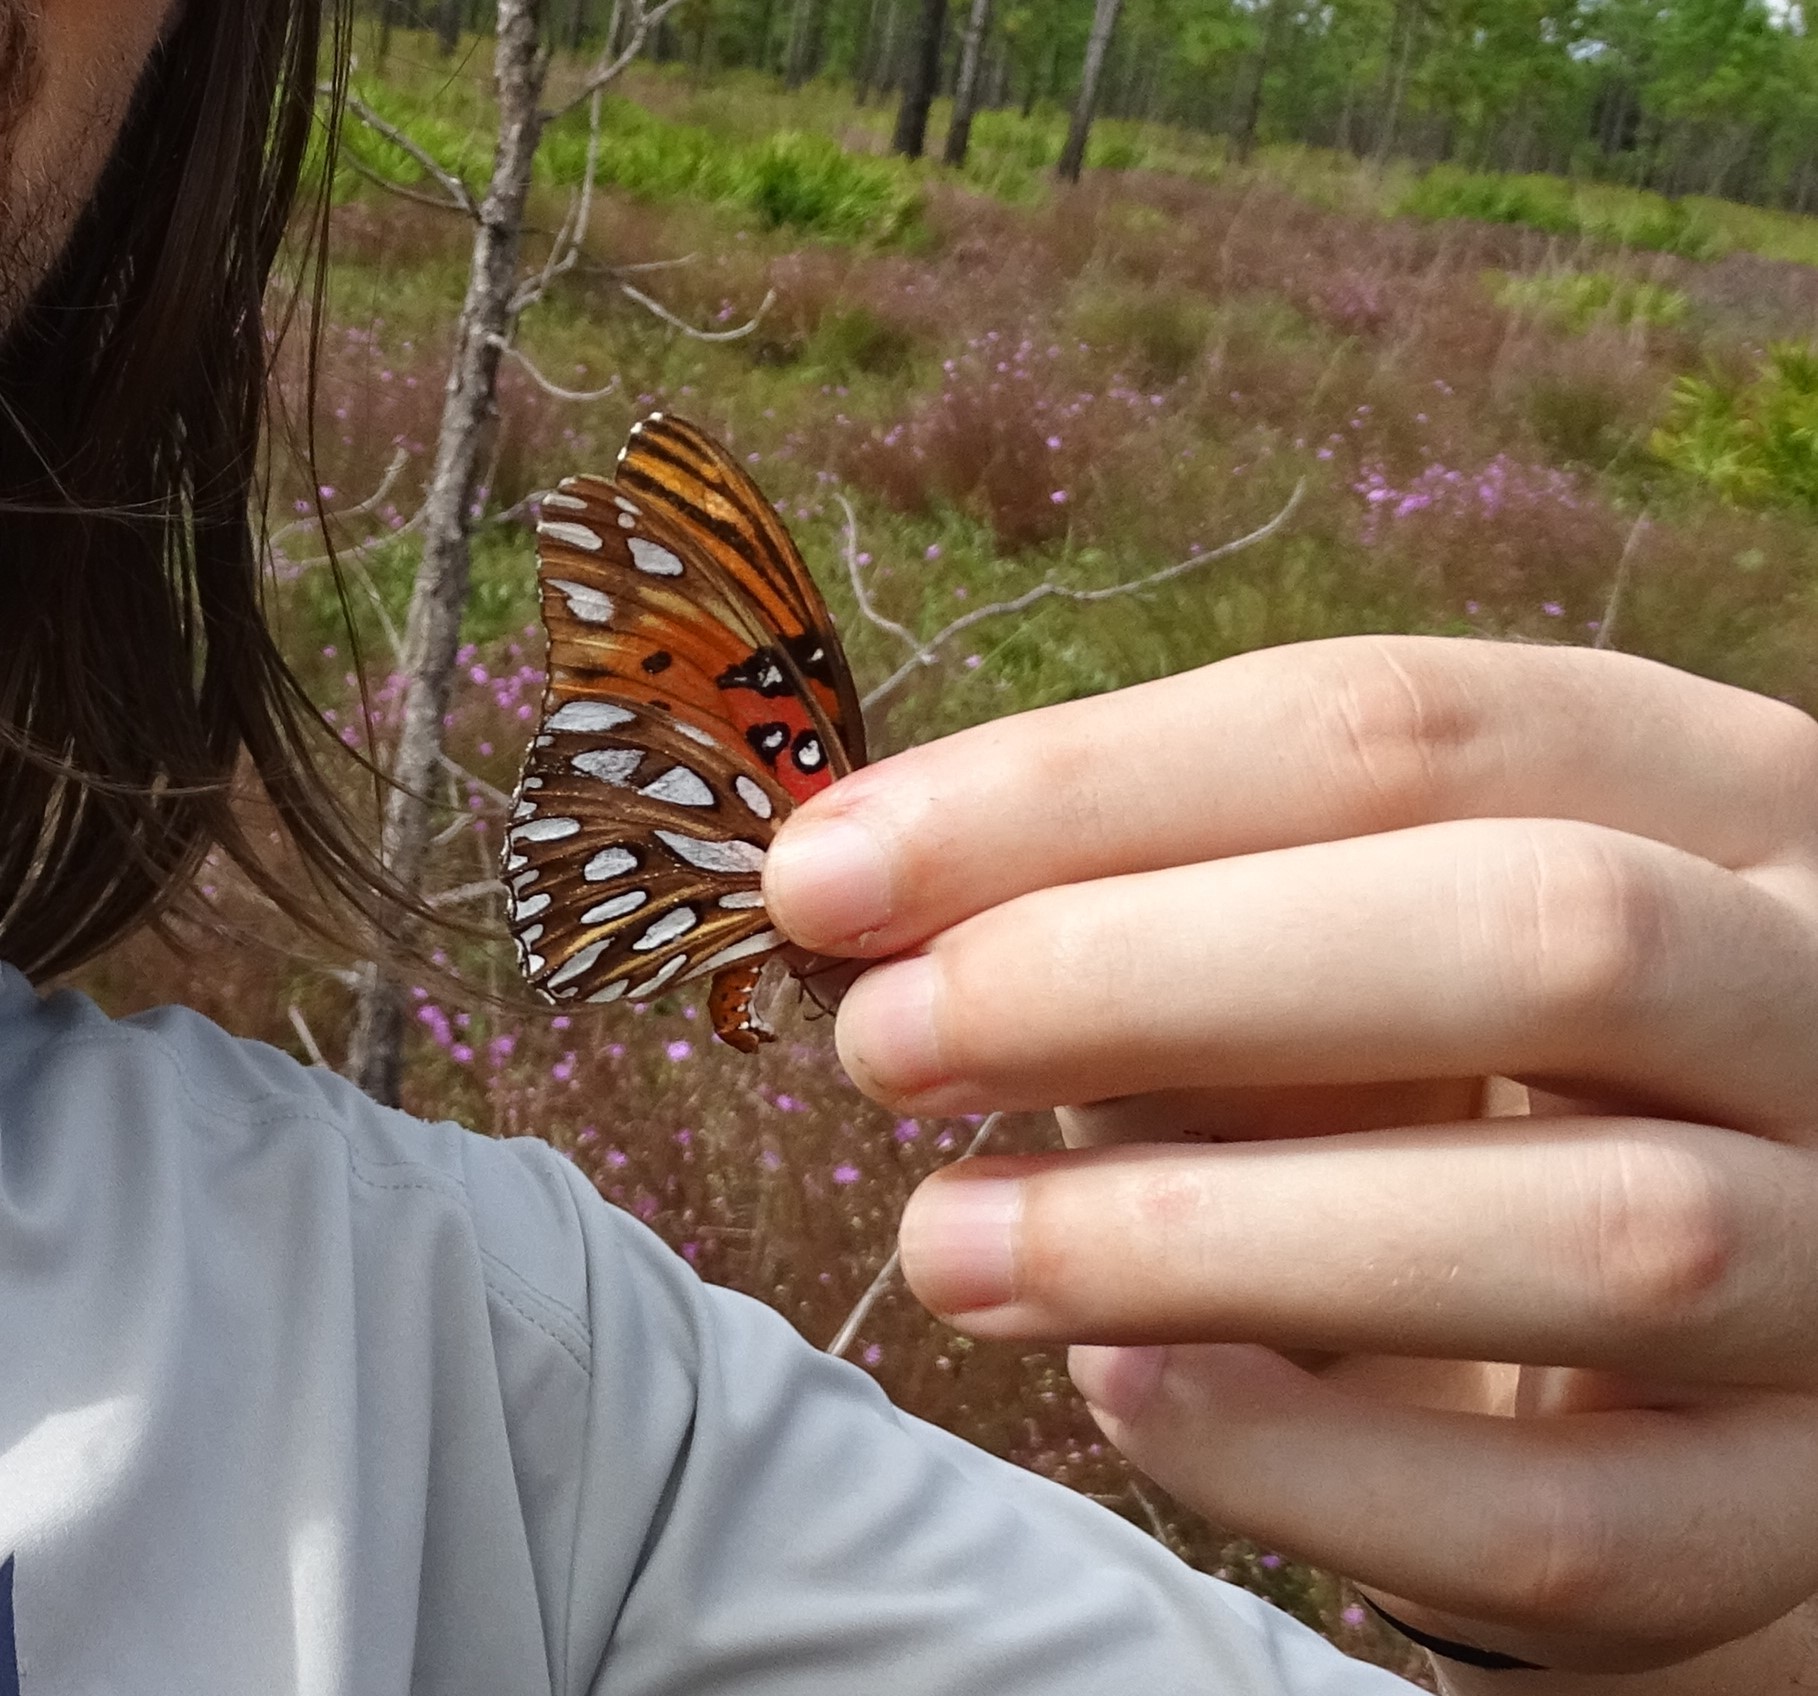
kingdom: Animalia
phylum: Arthropoda
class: Insecta
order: Lepidoptera
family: Nymphalidae
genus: Dione
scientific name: Dione vanillae
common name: Gulf fritillary
